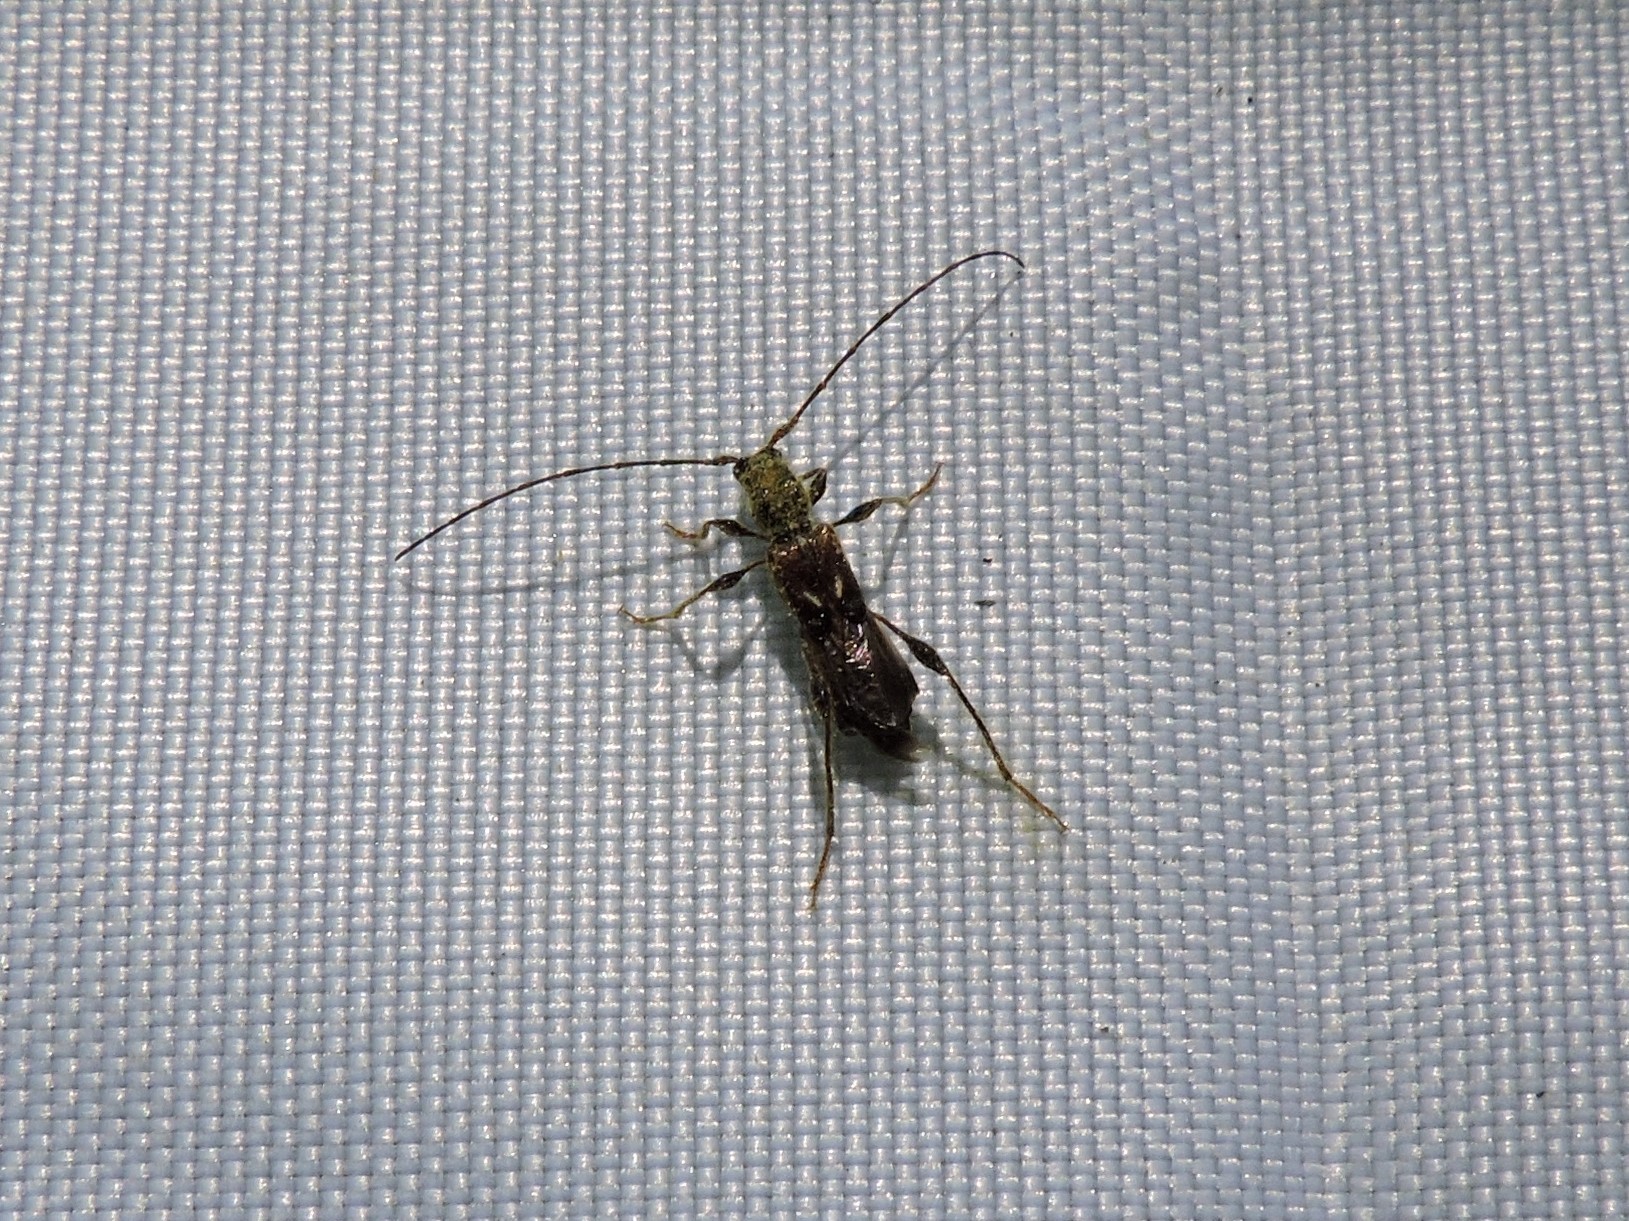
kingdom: Animalia
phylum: Arthropoda
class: Insecta
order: Coleoptera
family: Cerambycidae
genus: Molorchus
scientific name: Molorchus minor
